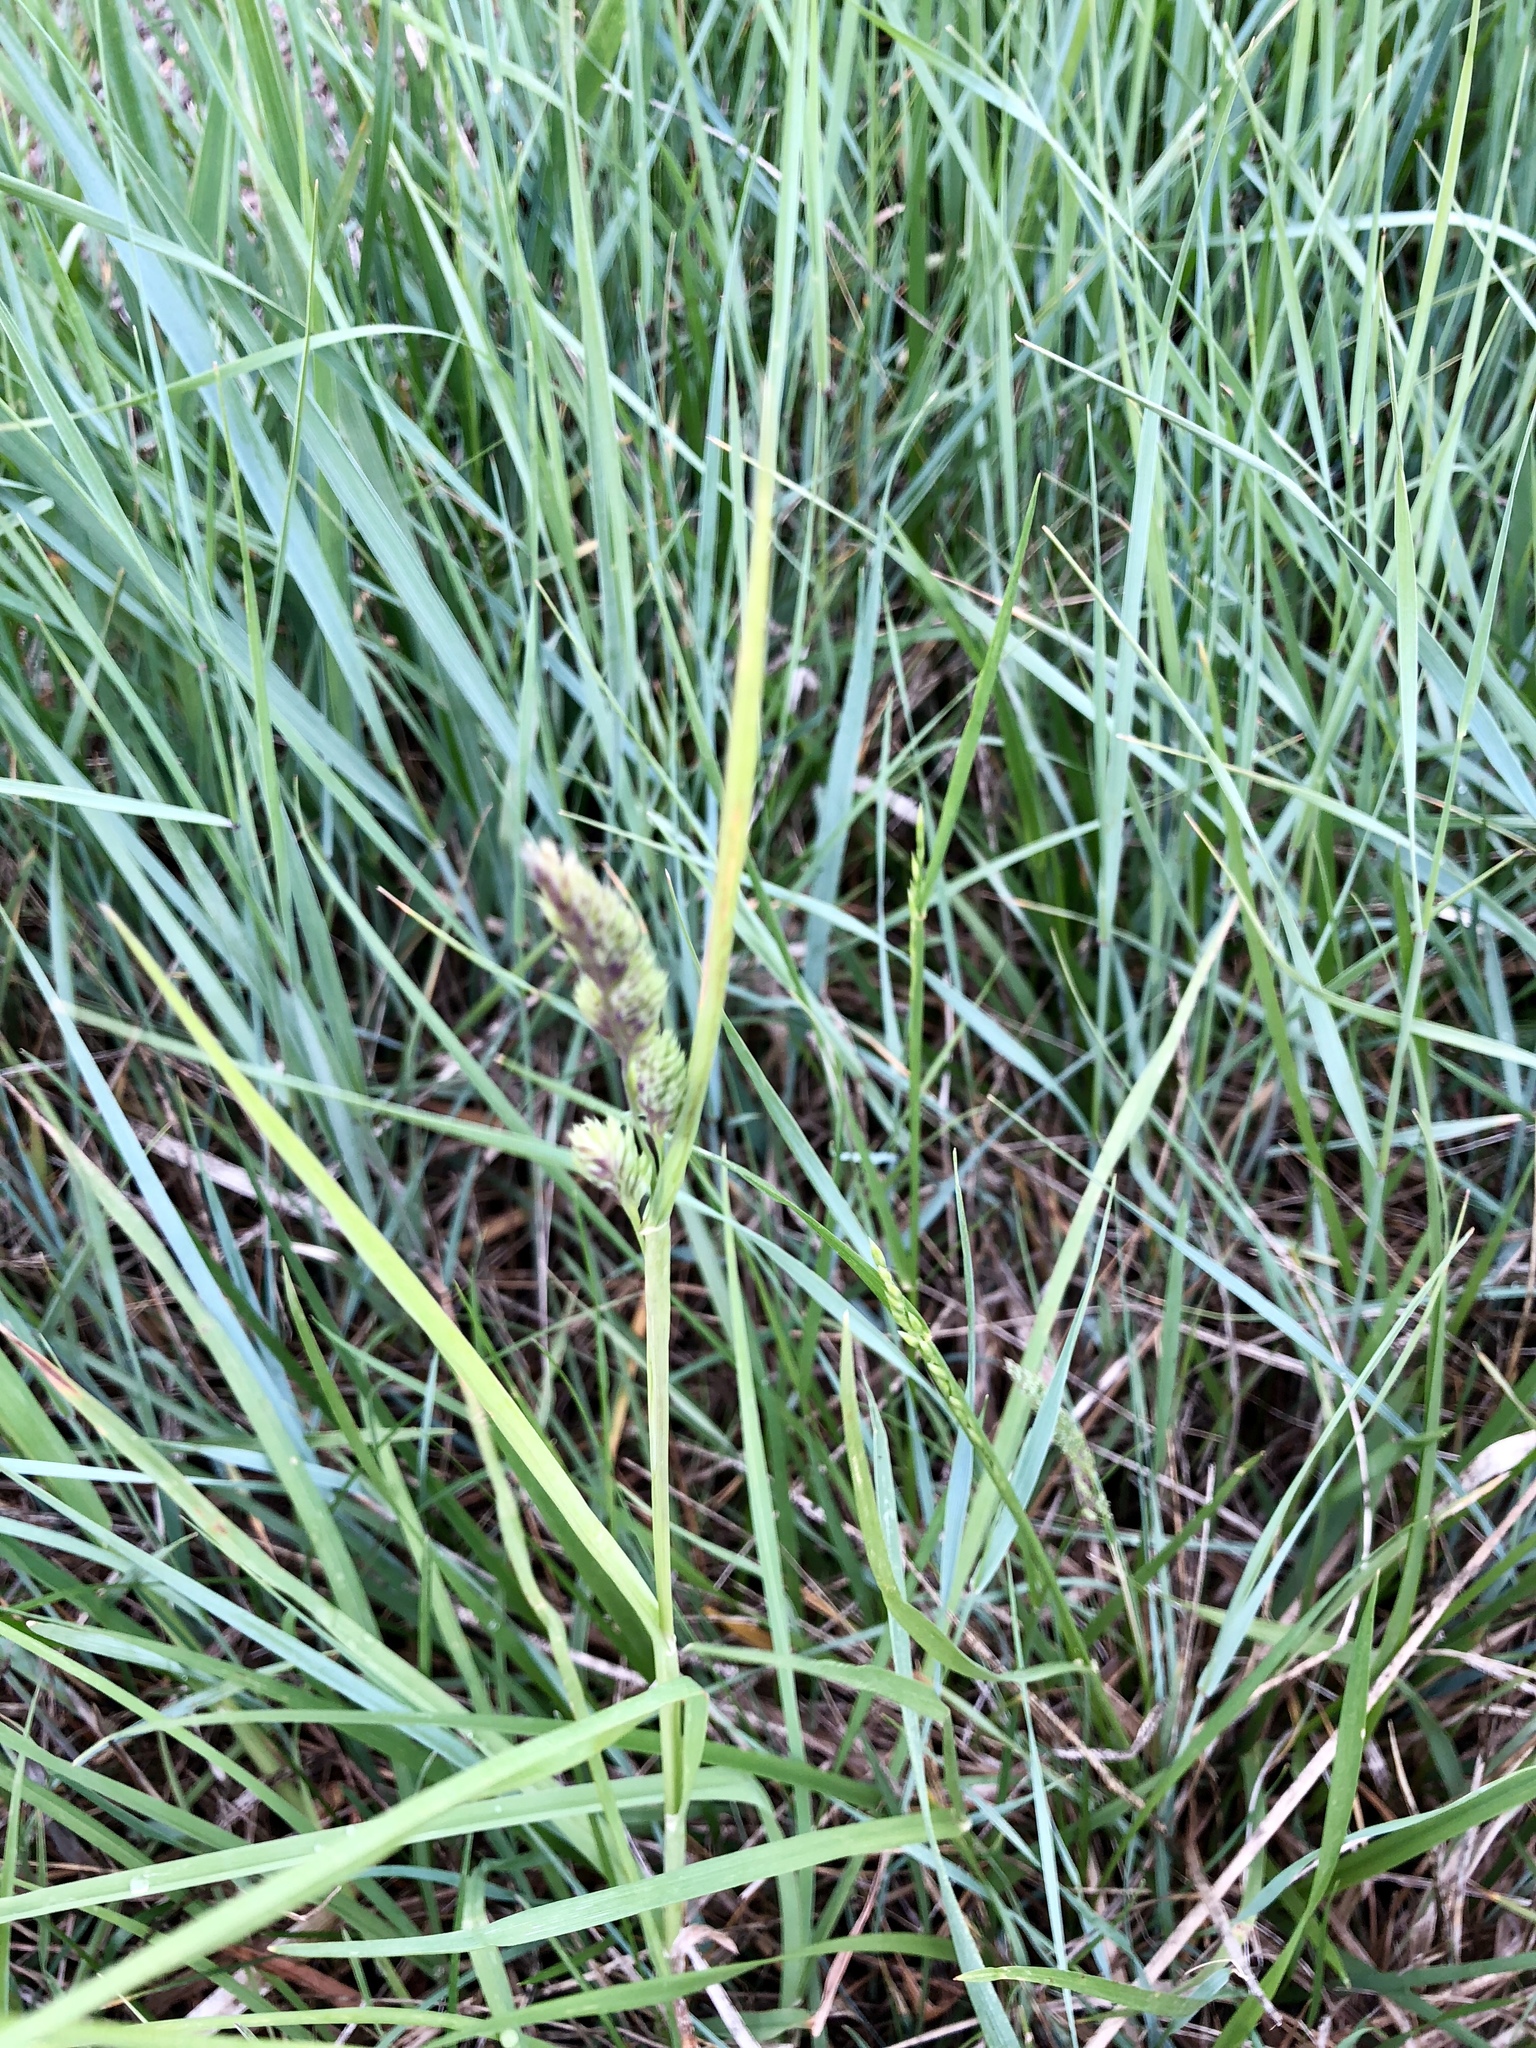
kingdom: Plantae
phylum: Tracheophyta
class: Liliopsida
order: Poales
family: Poaceae
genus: Dactylis
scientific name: Dactylis glomerata
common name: Orchardgrass
